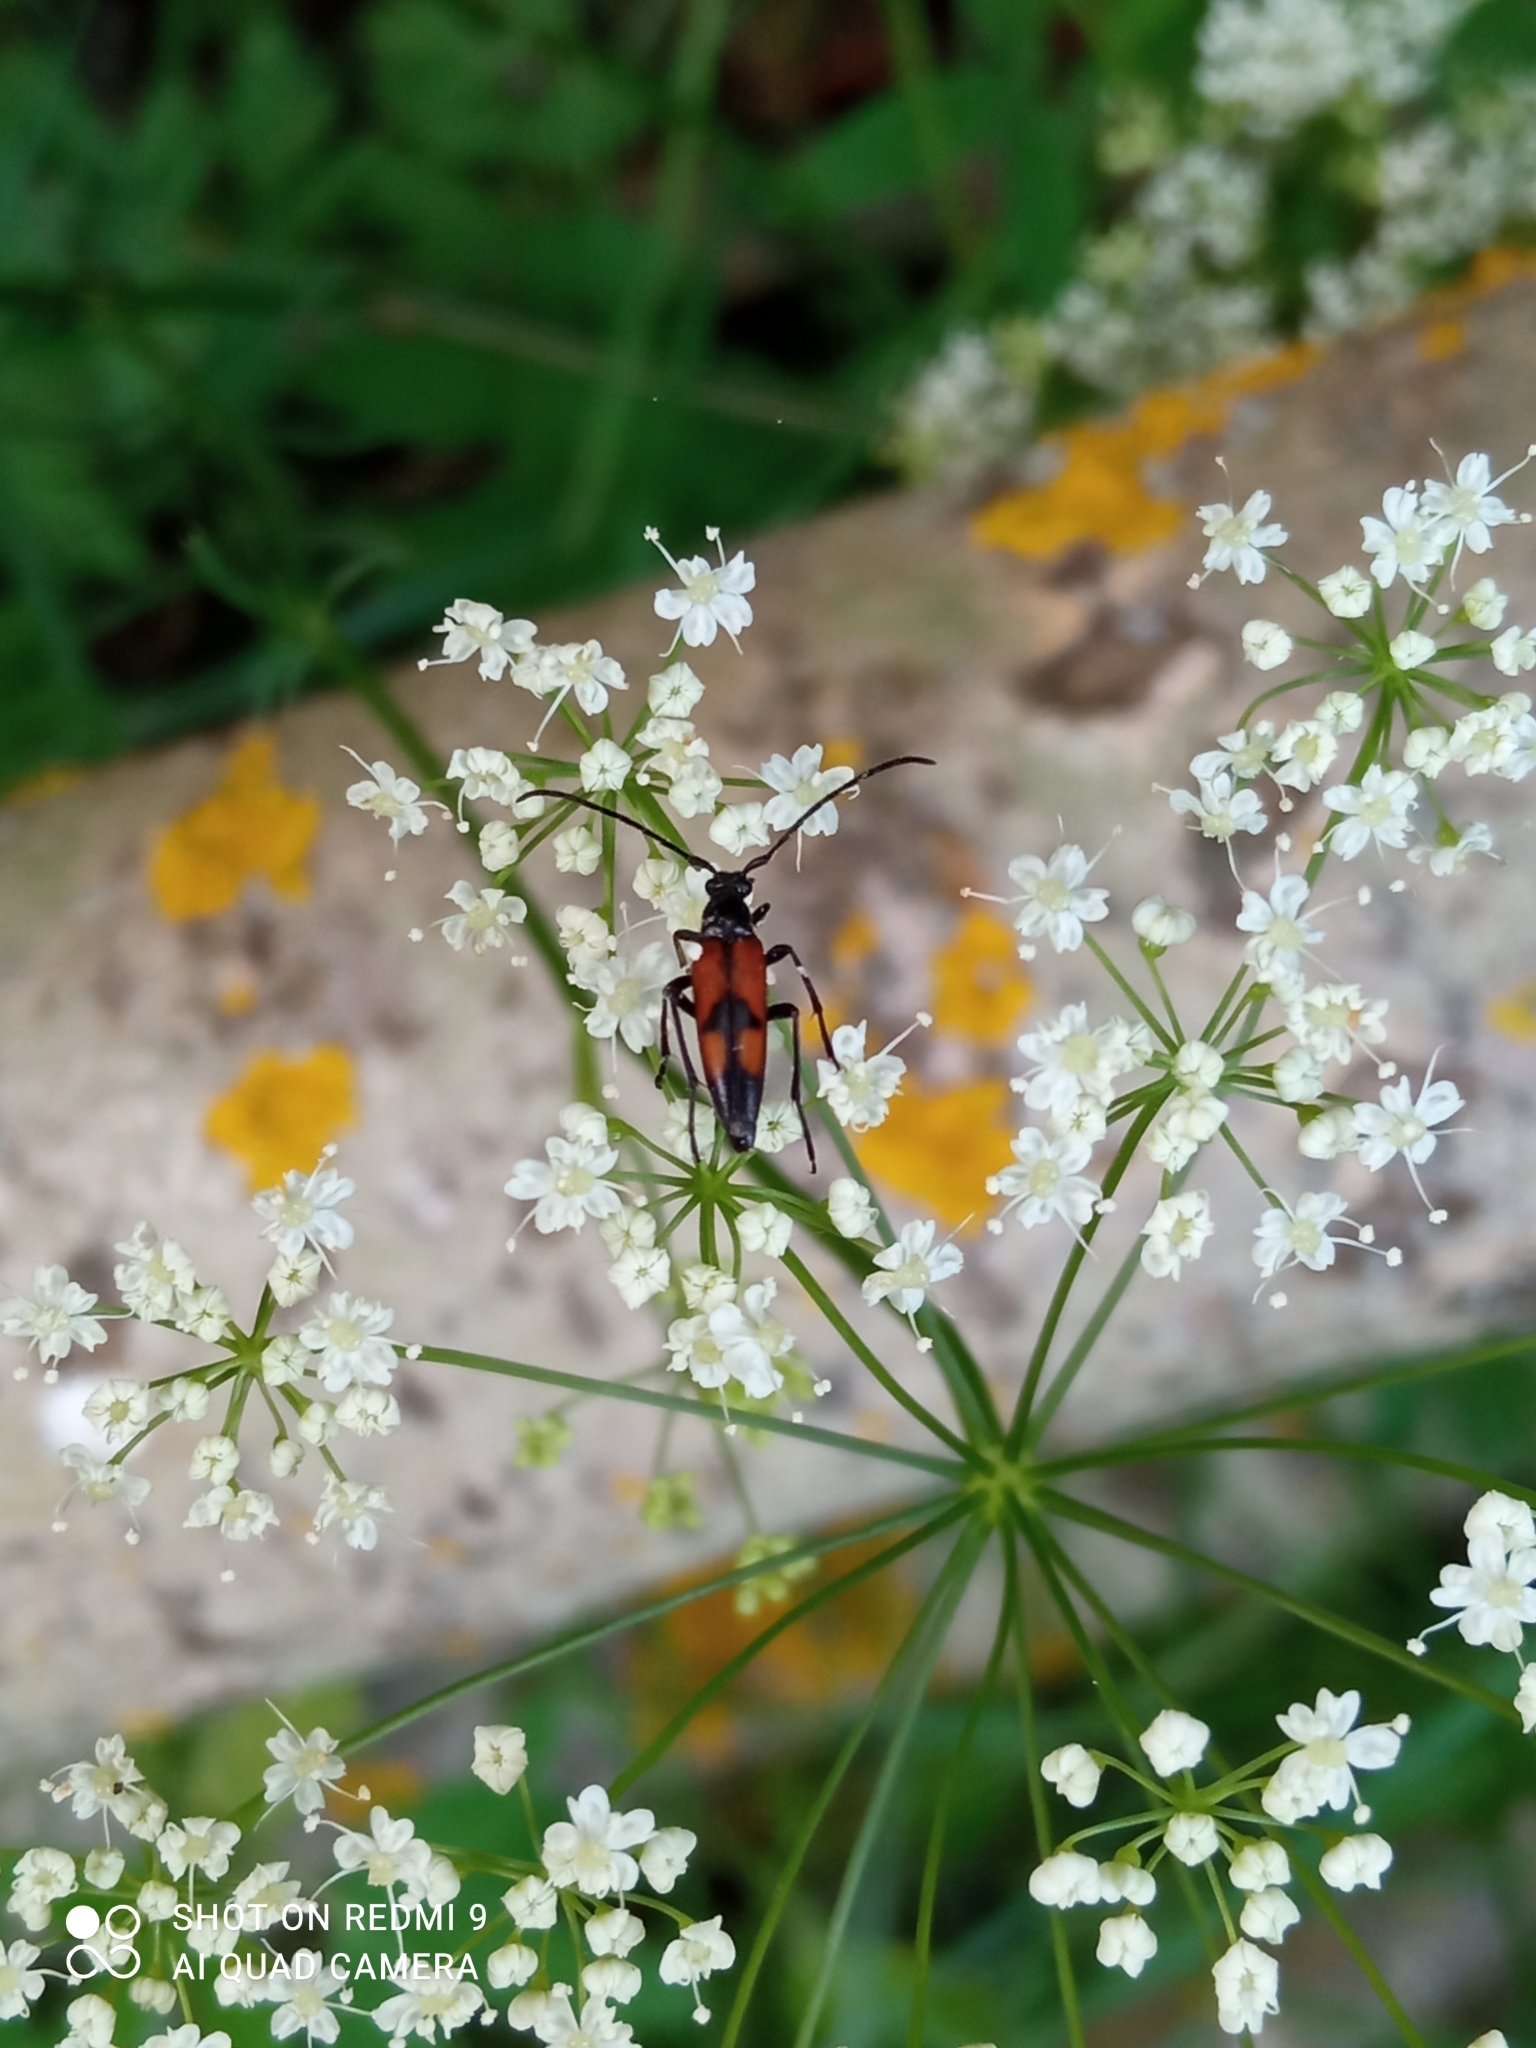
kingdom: Animalia
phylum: Arthropoda
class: Insecta
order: Coleoptera
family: Cerambycidae
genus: Stenurella
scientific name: Stenurella bifasciata
